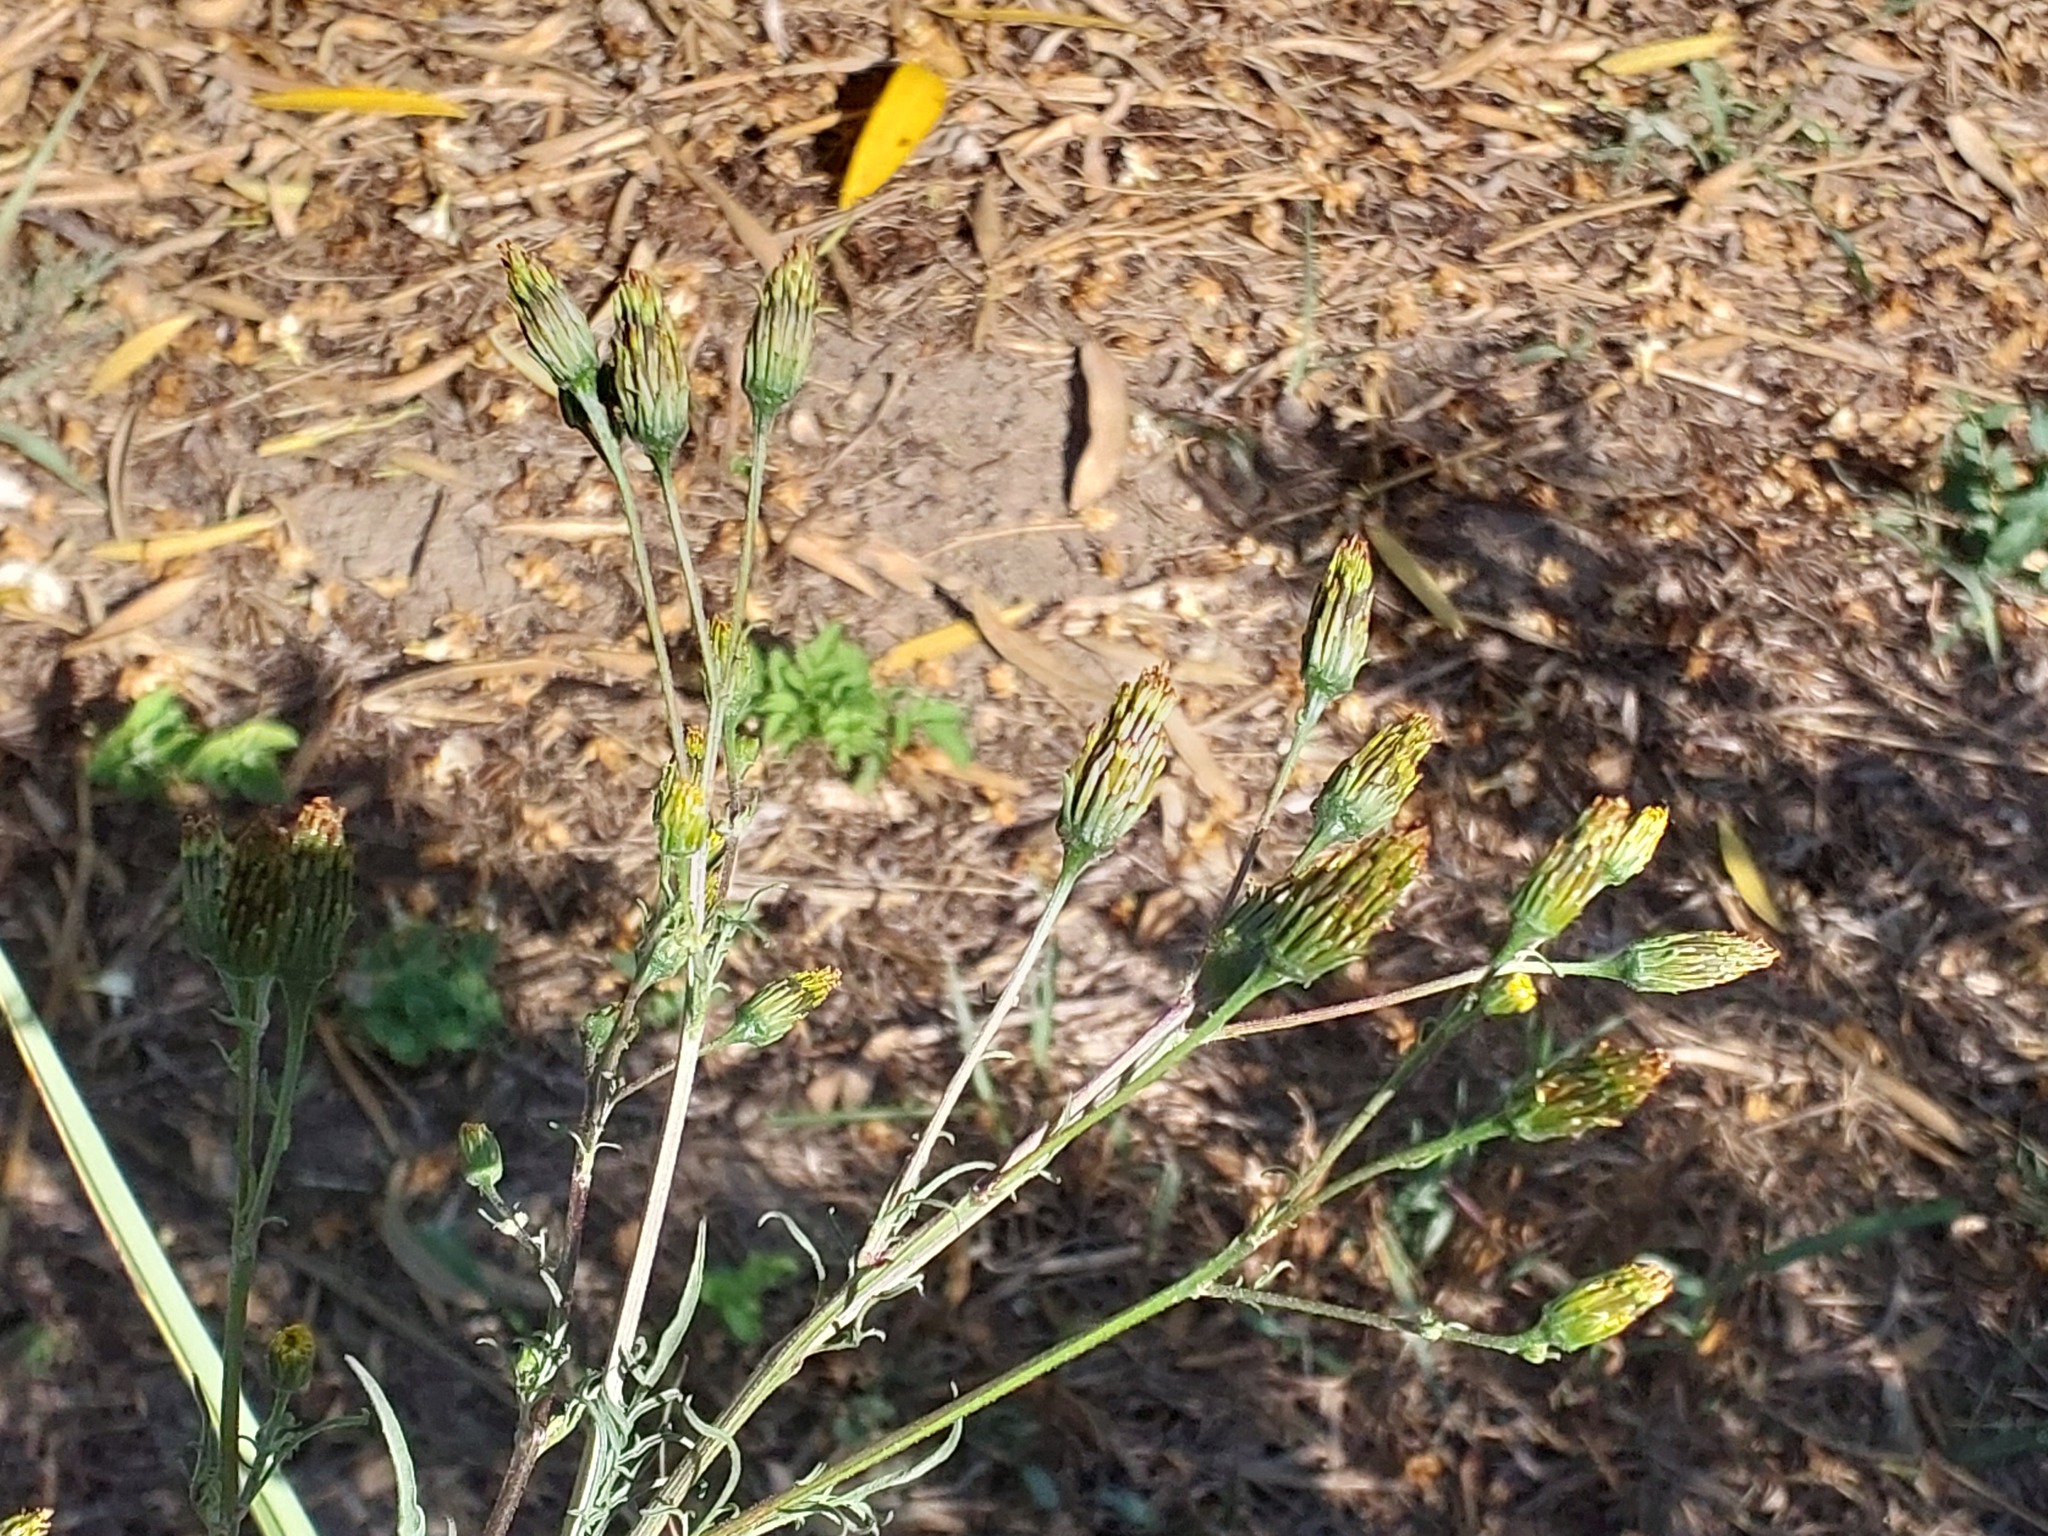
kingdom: Plantae
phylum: Tracheophyta
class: Magnoliopsida
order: Asterales
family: Asteraceae
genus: Bidens
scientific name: Bidens subalternans
